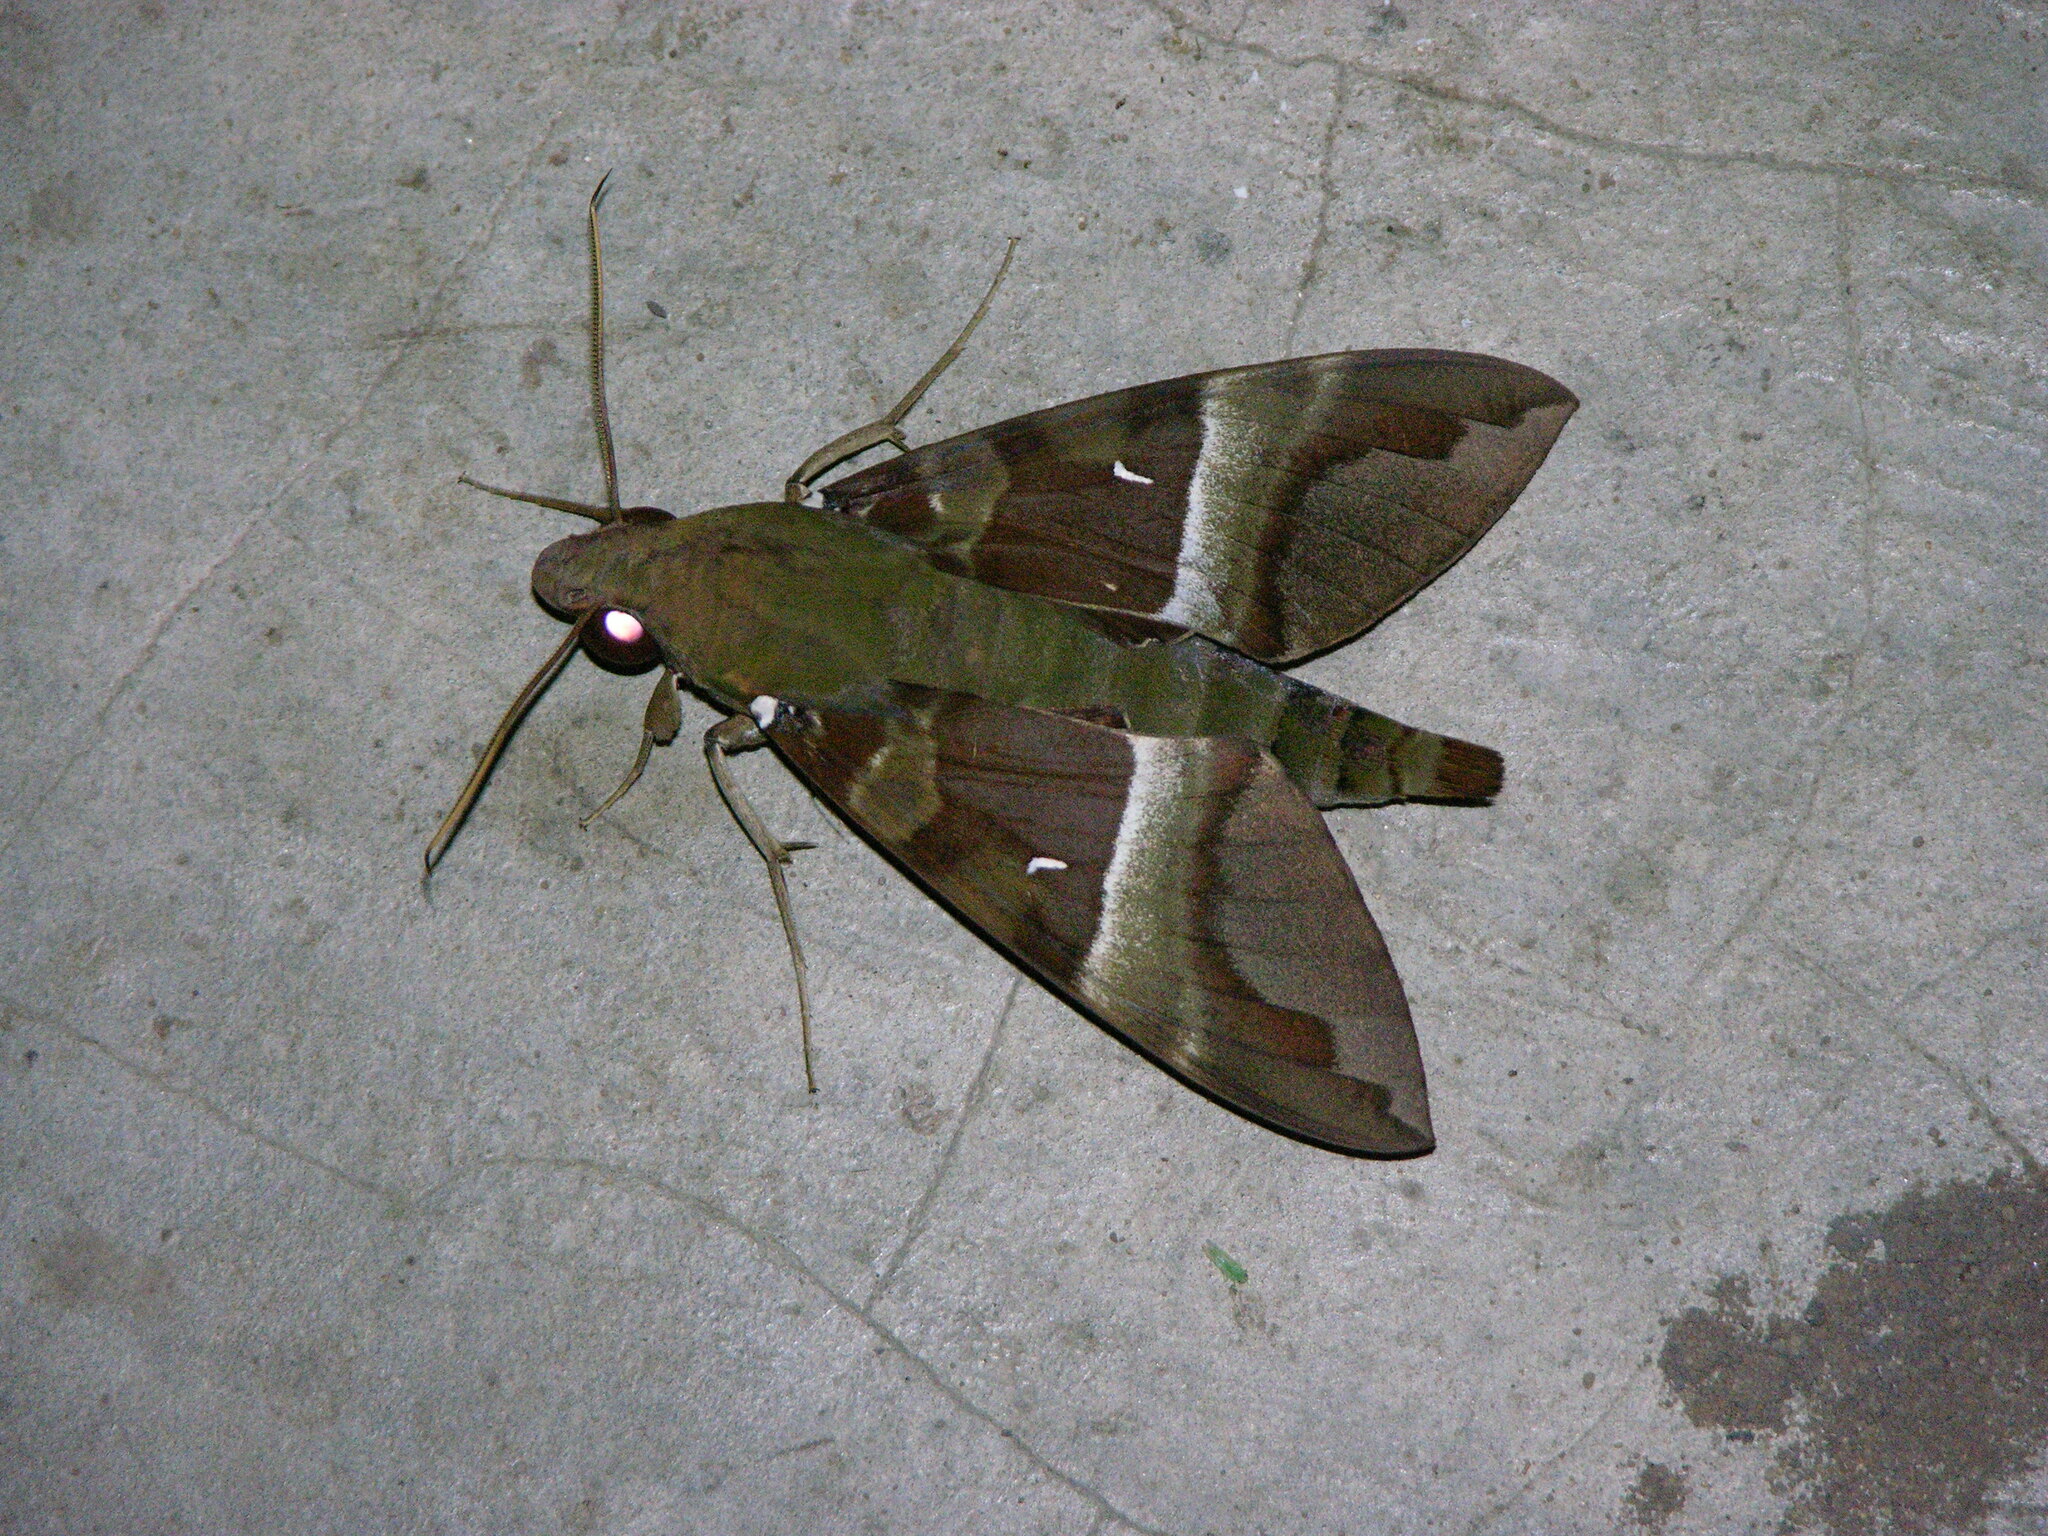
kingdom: Animalia
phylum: Arthropoda
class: Insecta
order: Lepidoptera
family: Sphingidae
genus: Nephele
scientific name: Nephele rosae
